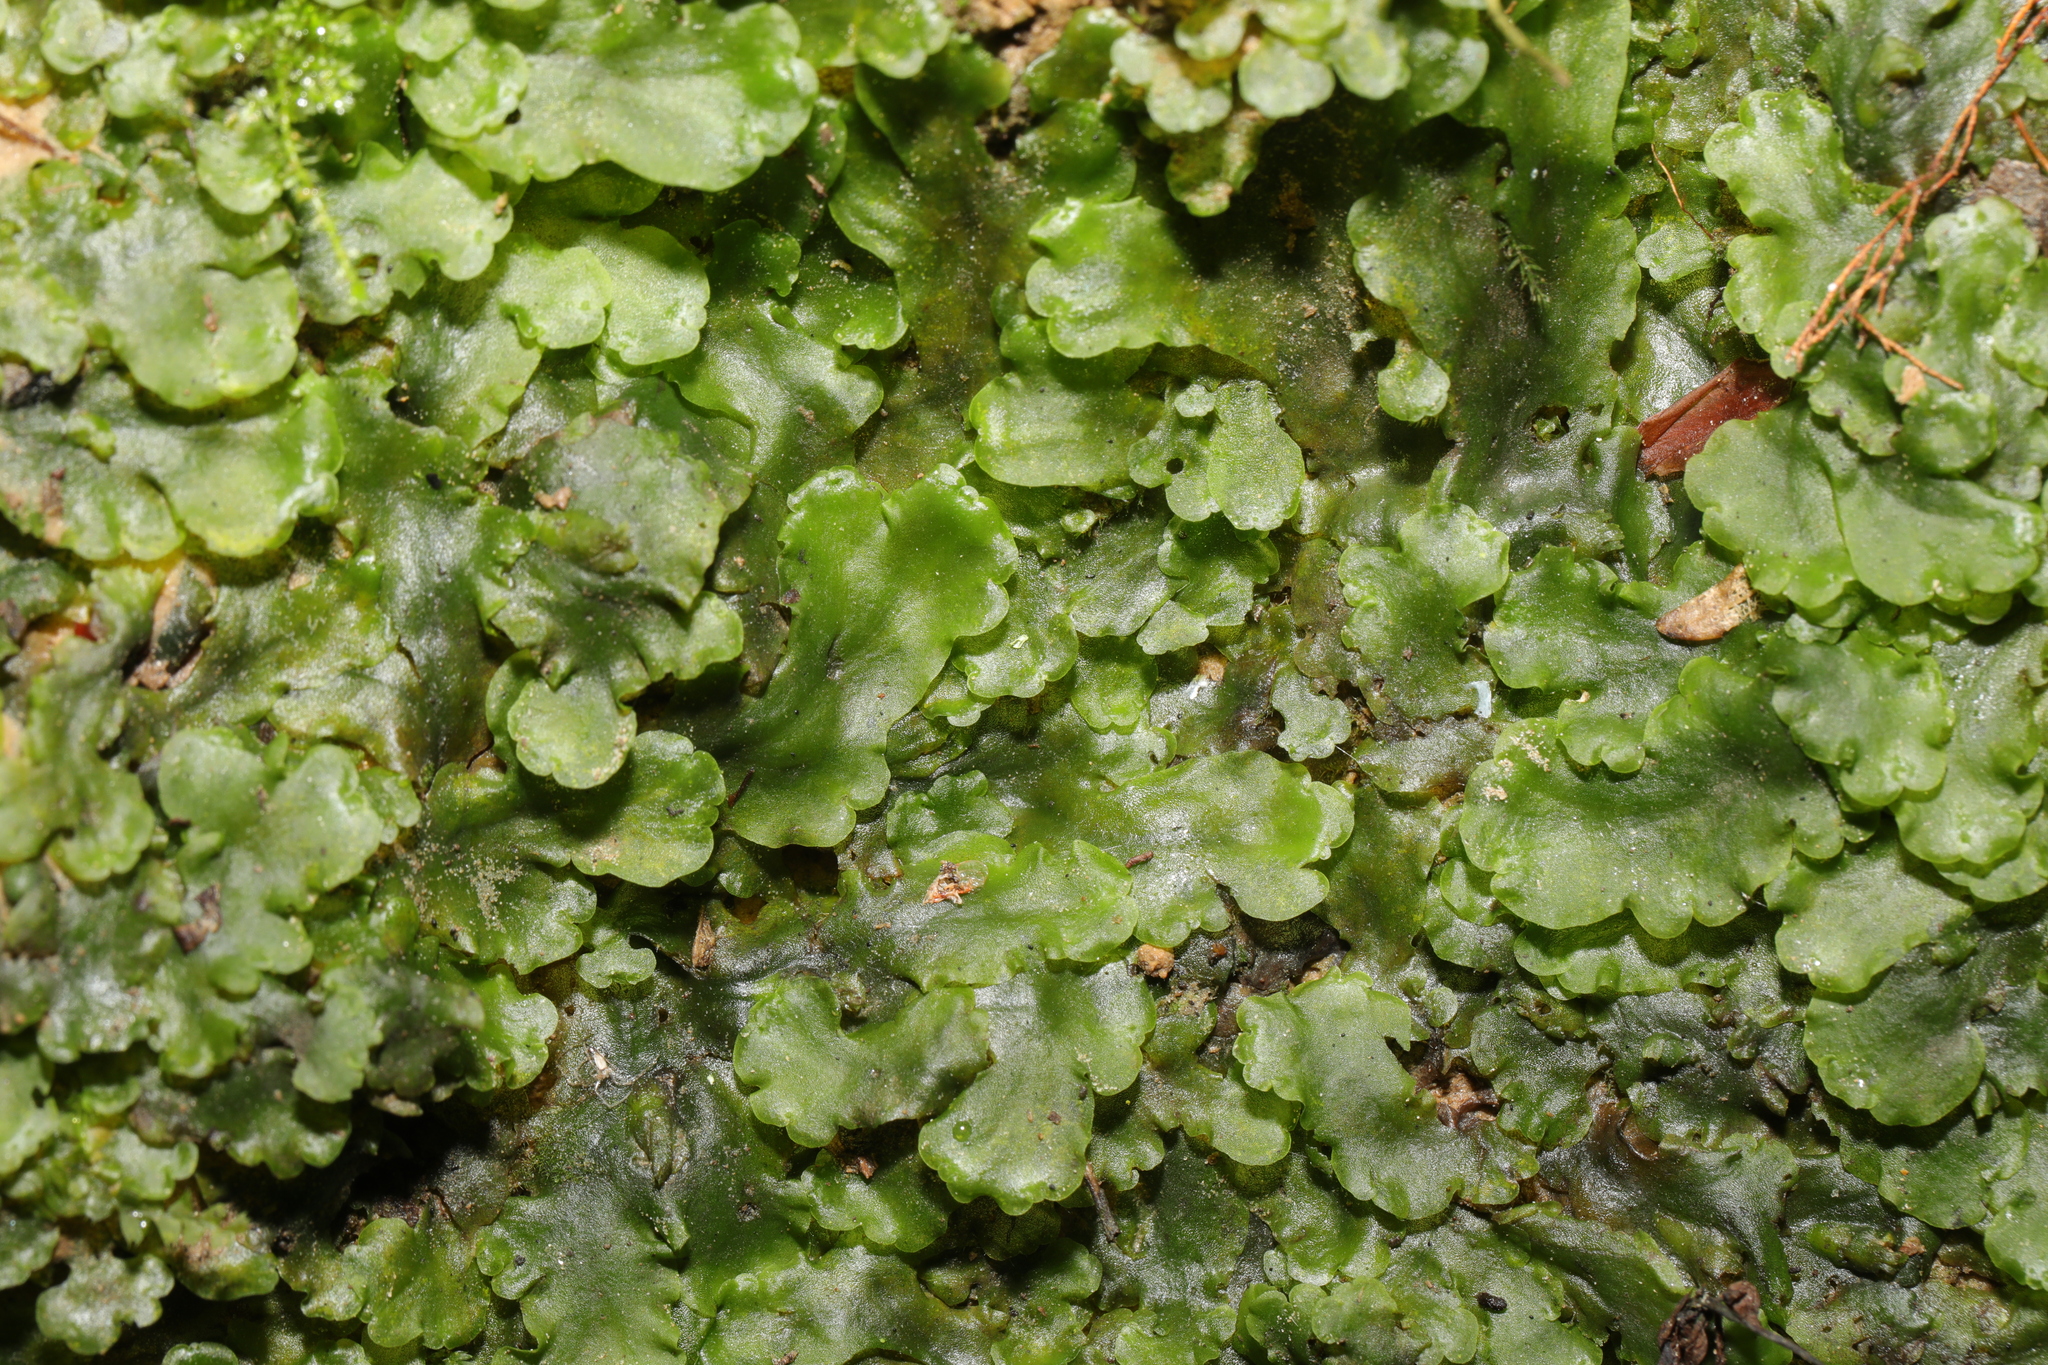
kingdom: Plantae
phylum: Marchantiophyta
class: Jungermanniopsida
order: Pelliales
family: Pelliaceae
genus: Pellia
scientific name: Pellia epiphylla
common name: Common pellia
